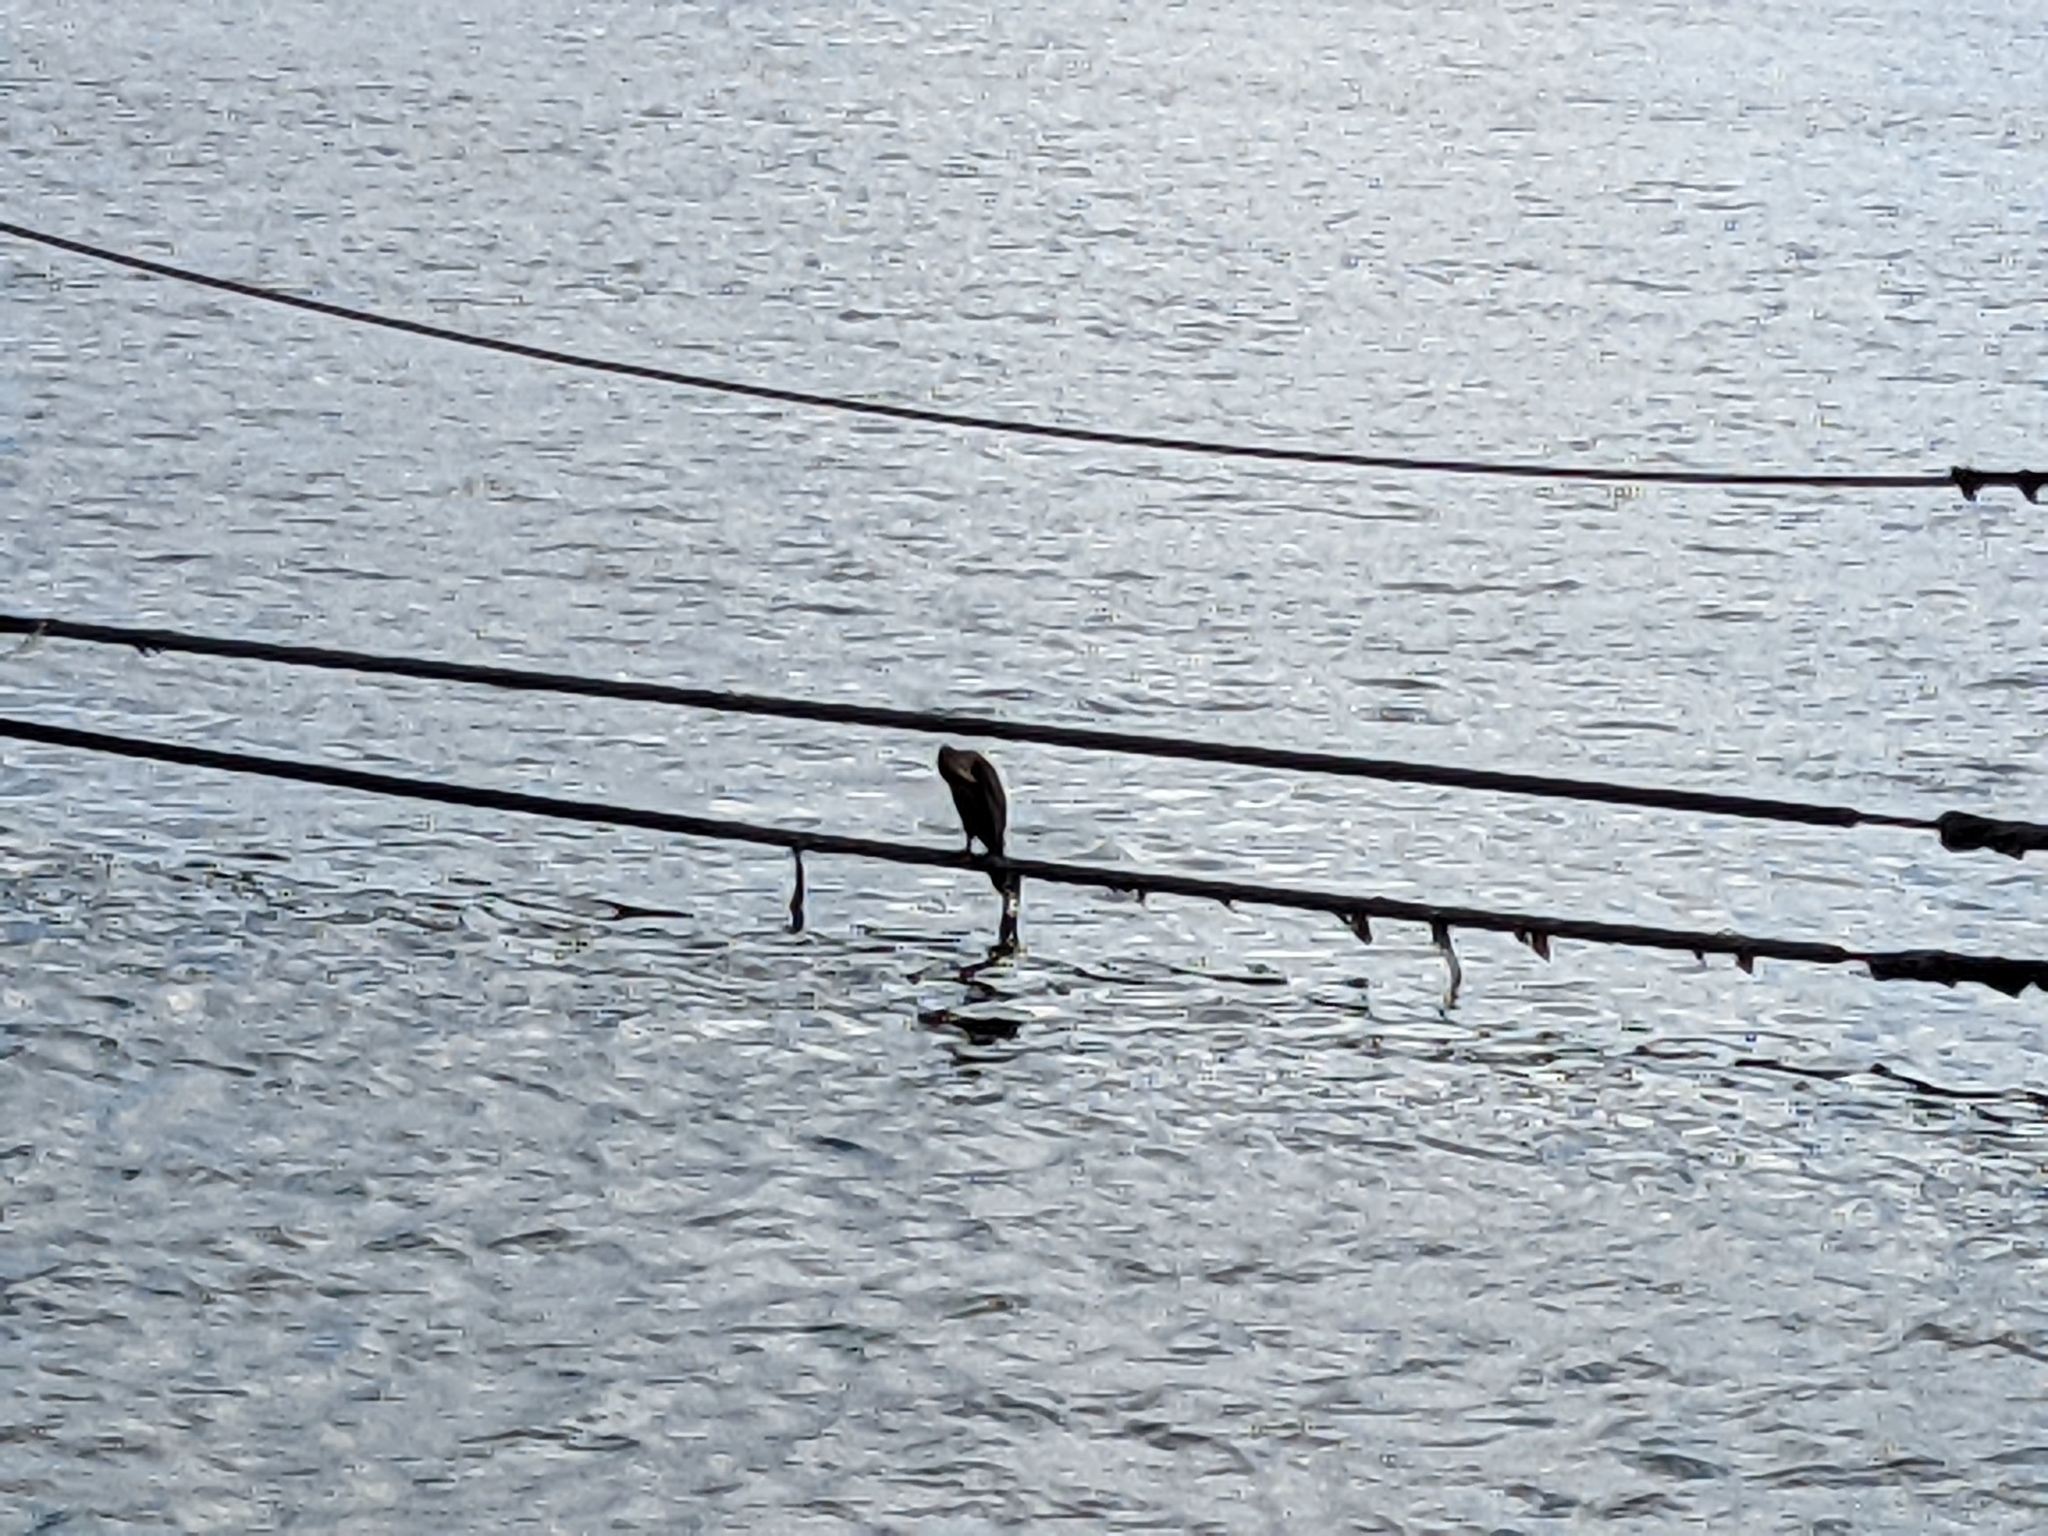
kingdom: Animalia
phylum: Chordata
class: Aves
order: Suliformes
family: Phalacrocoracidae
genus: Phalacrocorax
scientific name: Phalacrocorax auritus
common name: Double-crested cormorant
